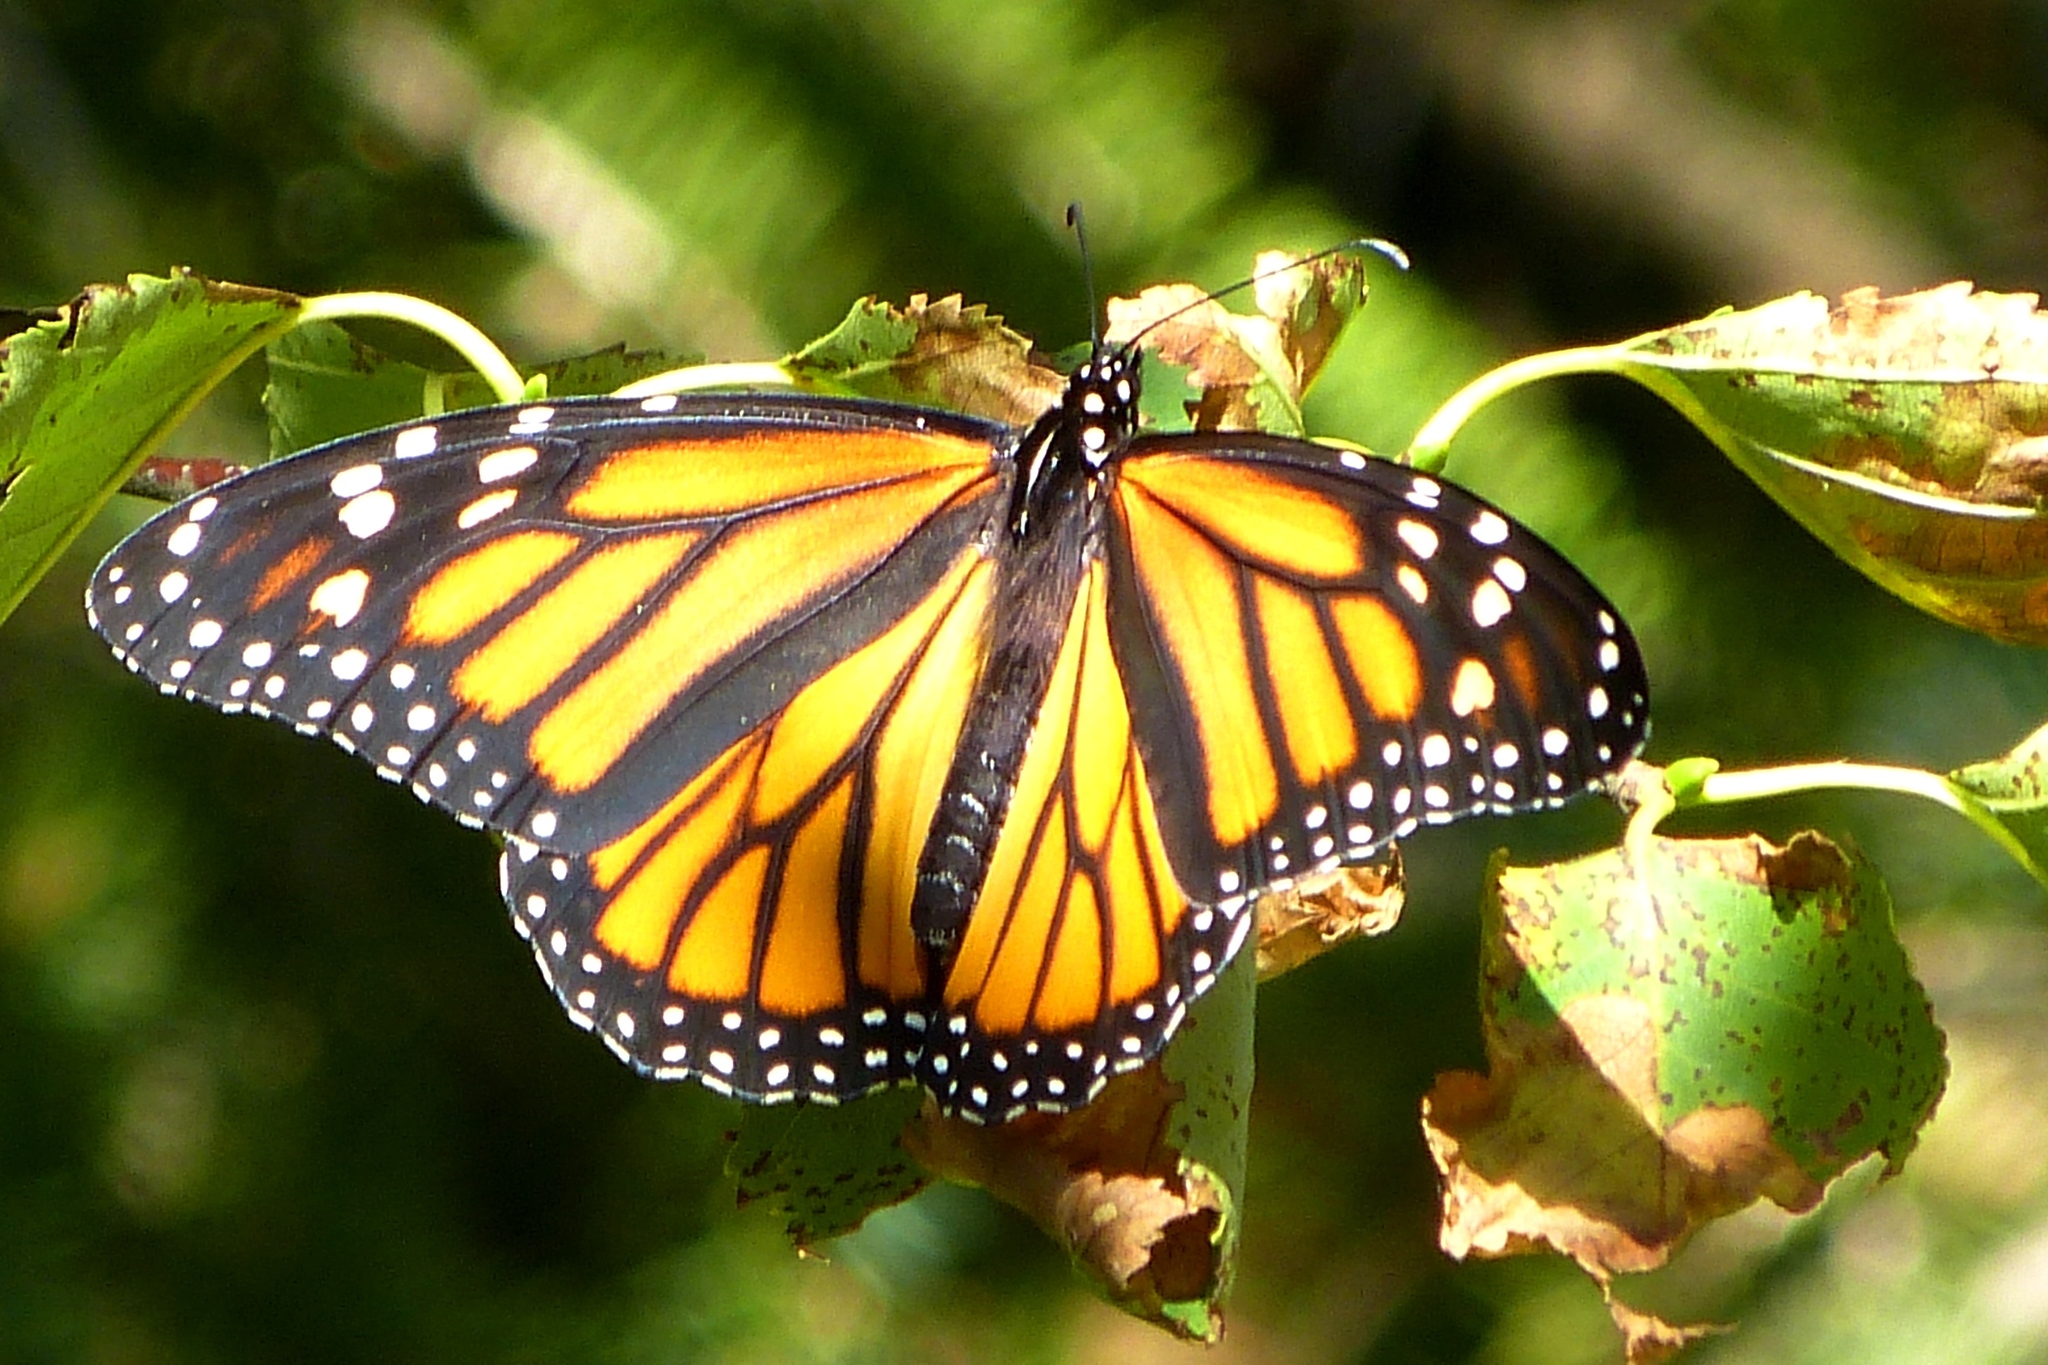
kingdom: Animalia
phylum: Arthropoda
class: Insecta
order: Lepidoptera
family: Nymphalidae
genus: Danaus
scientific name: Danaus plexippus
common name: Monarch
